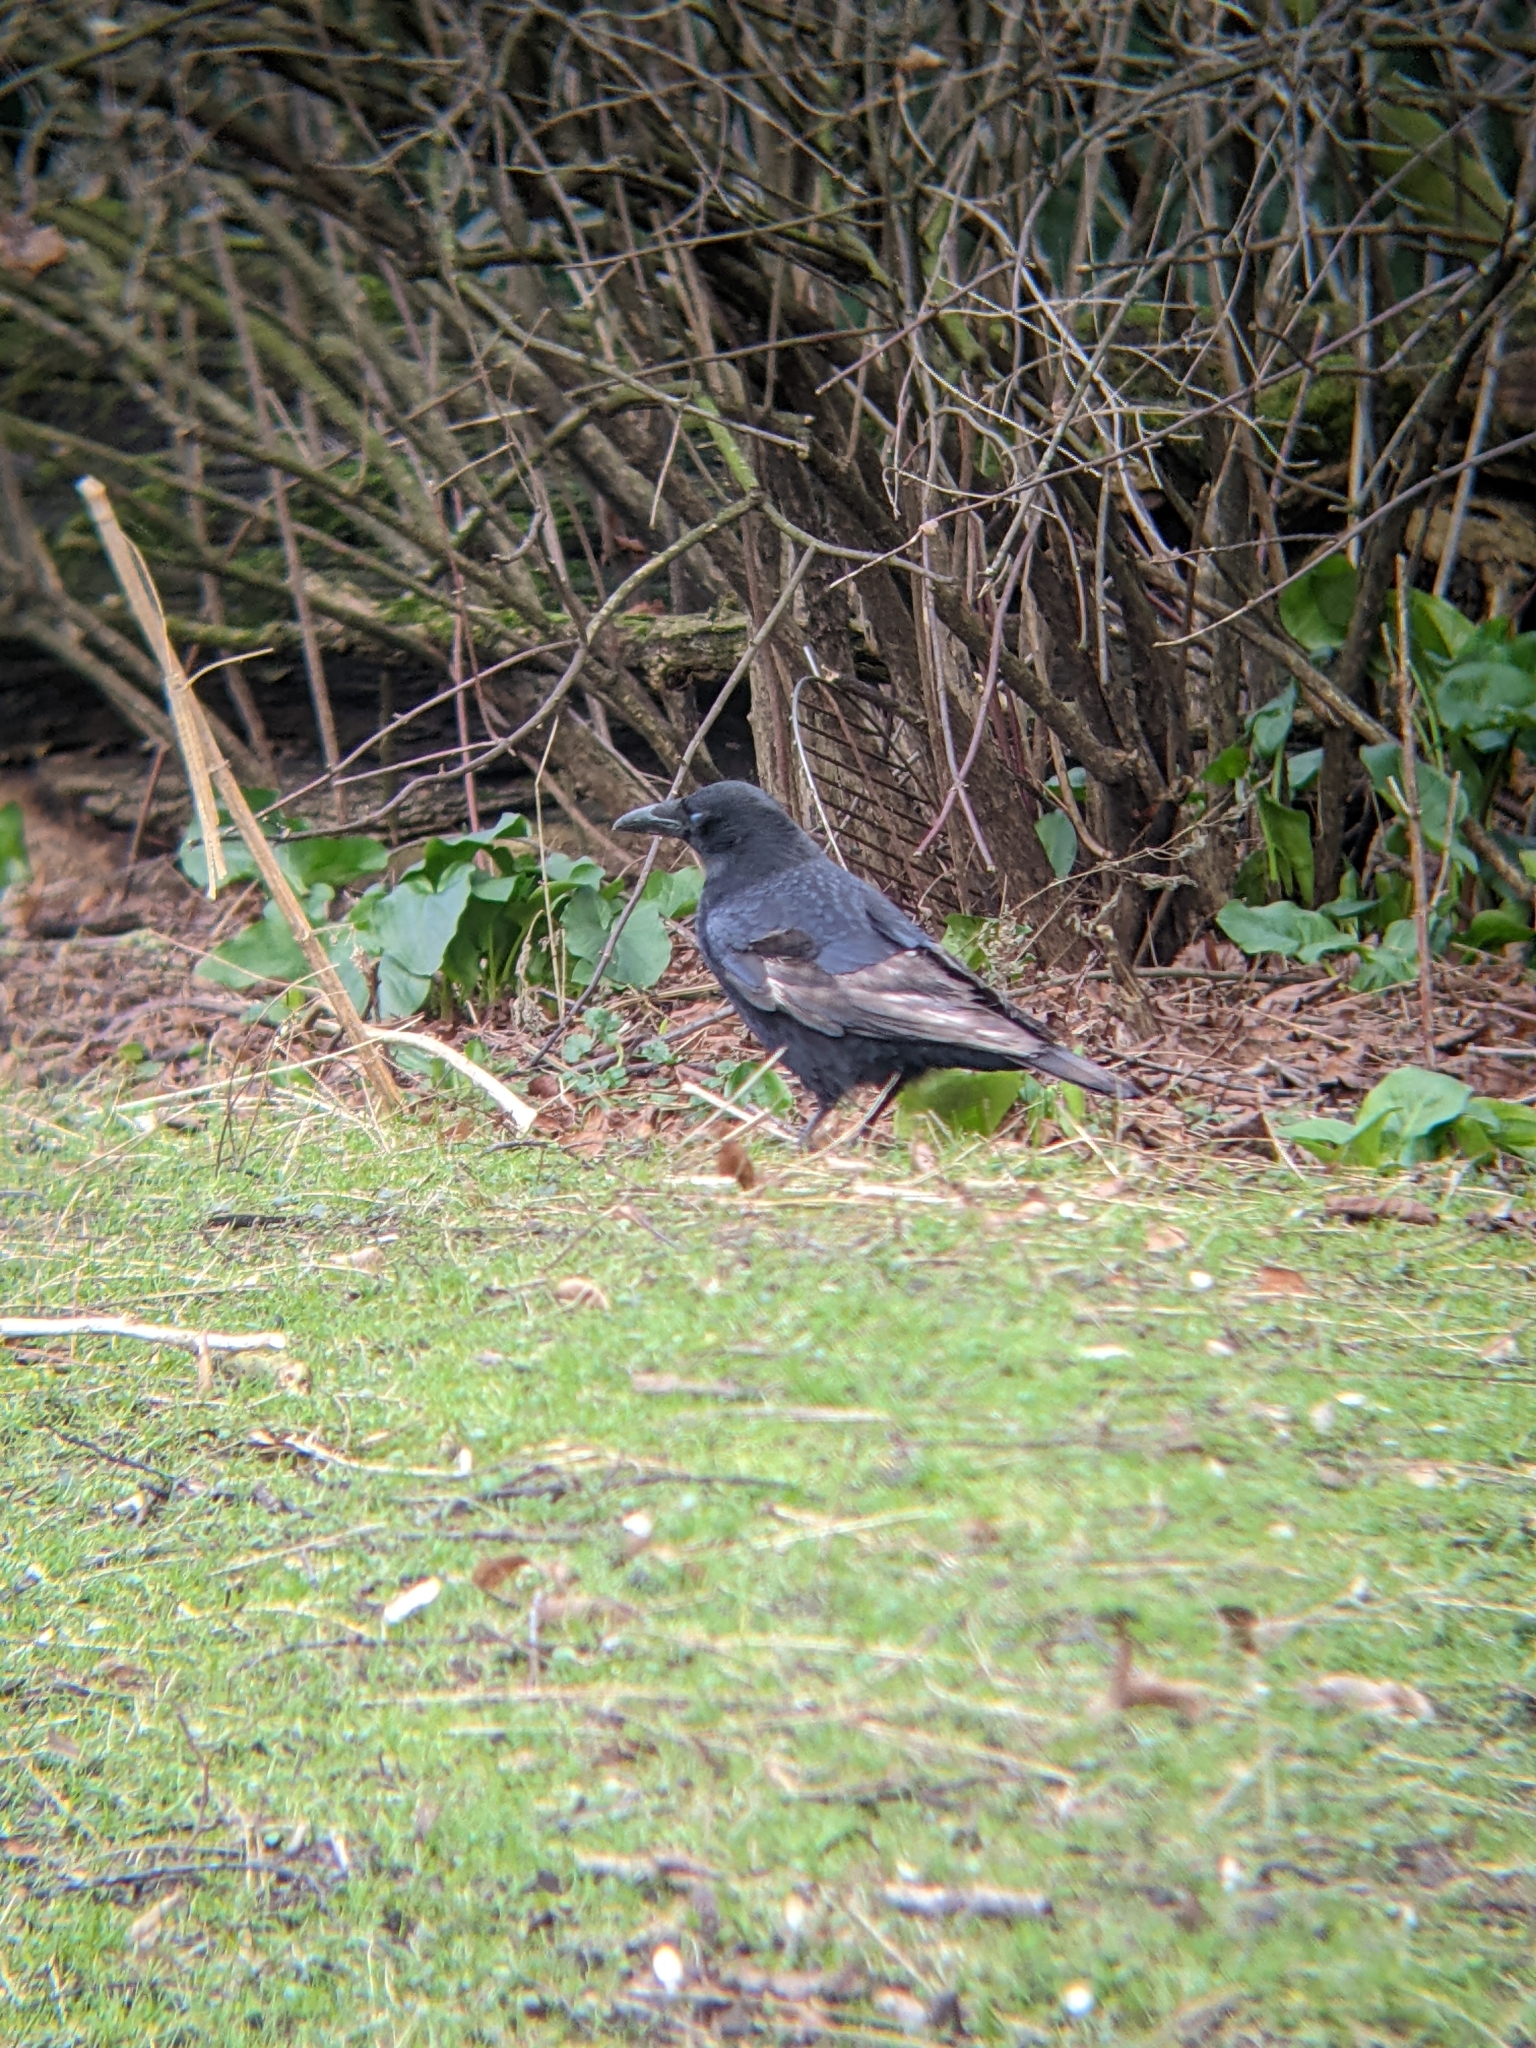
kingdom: Animalia
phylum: Chordata
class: Aves
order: Passeriformes
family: Corvidae
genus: Corvus
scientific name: Corvus corone
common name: Carrion crow
